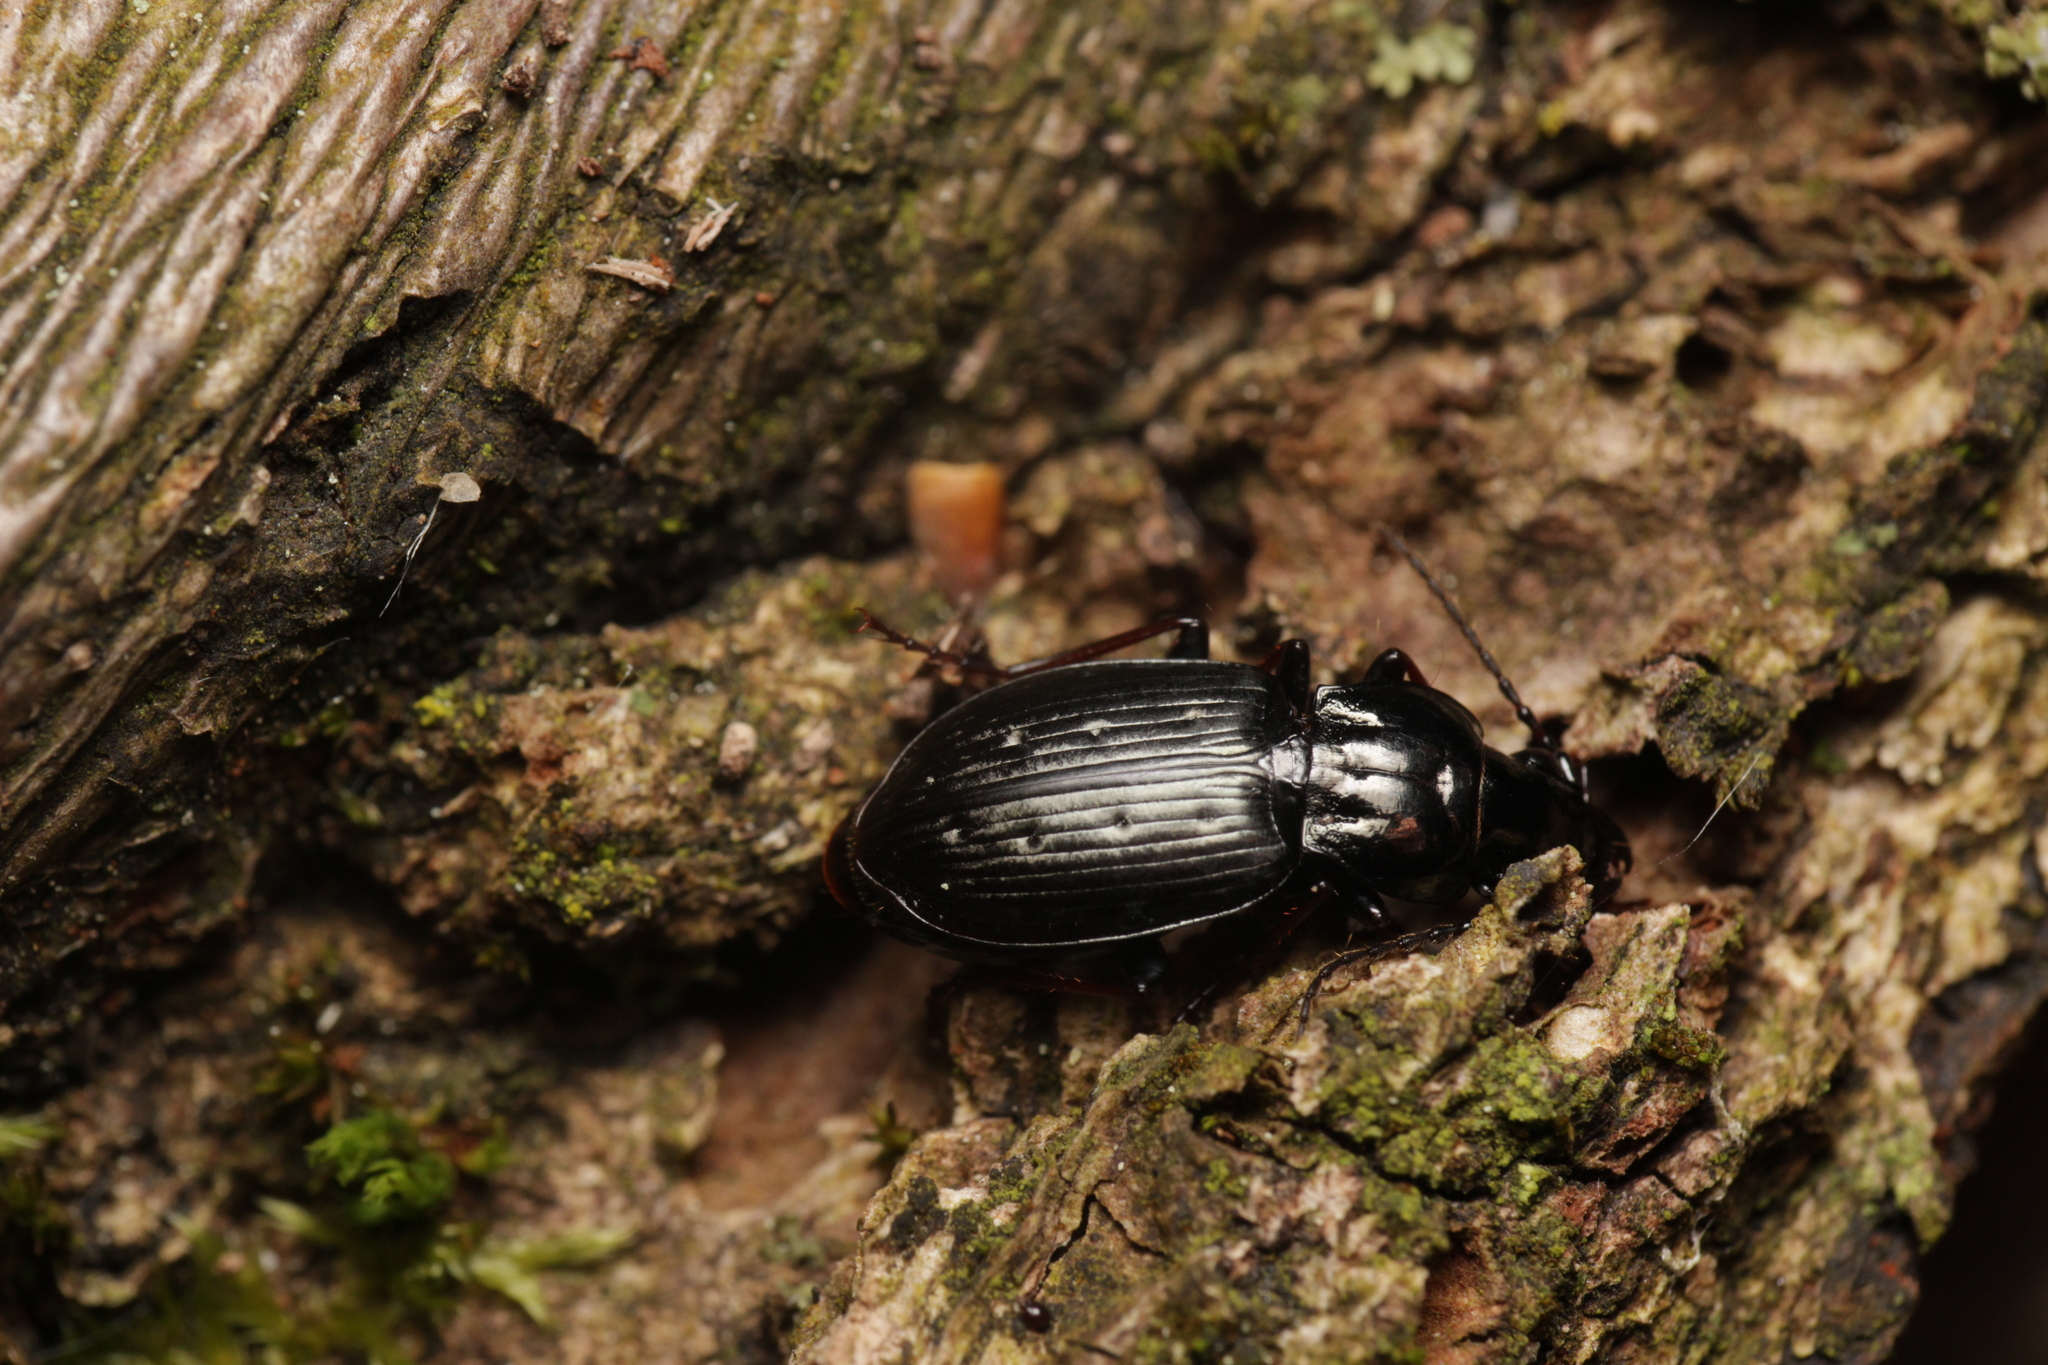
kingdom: Animalia
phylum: Arthropoda
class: Insecta
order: Coleoptera
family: Carabidae
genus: Pterostichus
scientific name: Pterostichus oblongopunctatus
